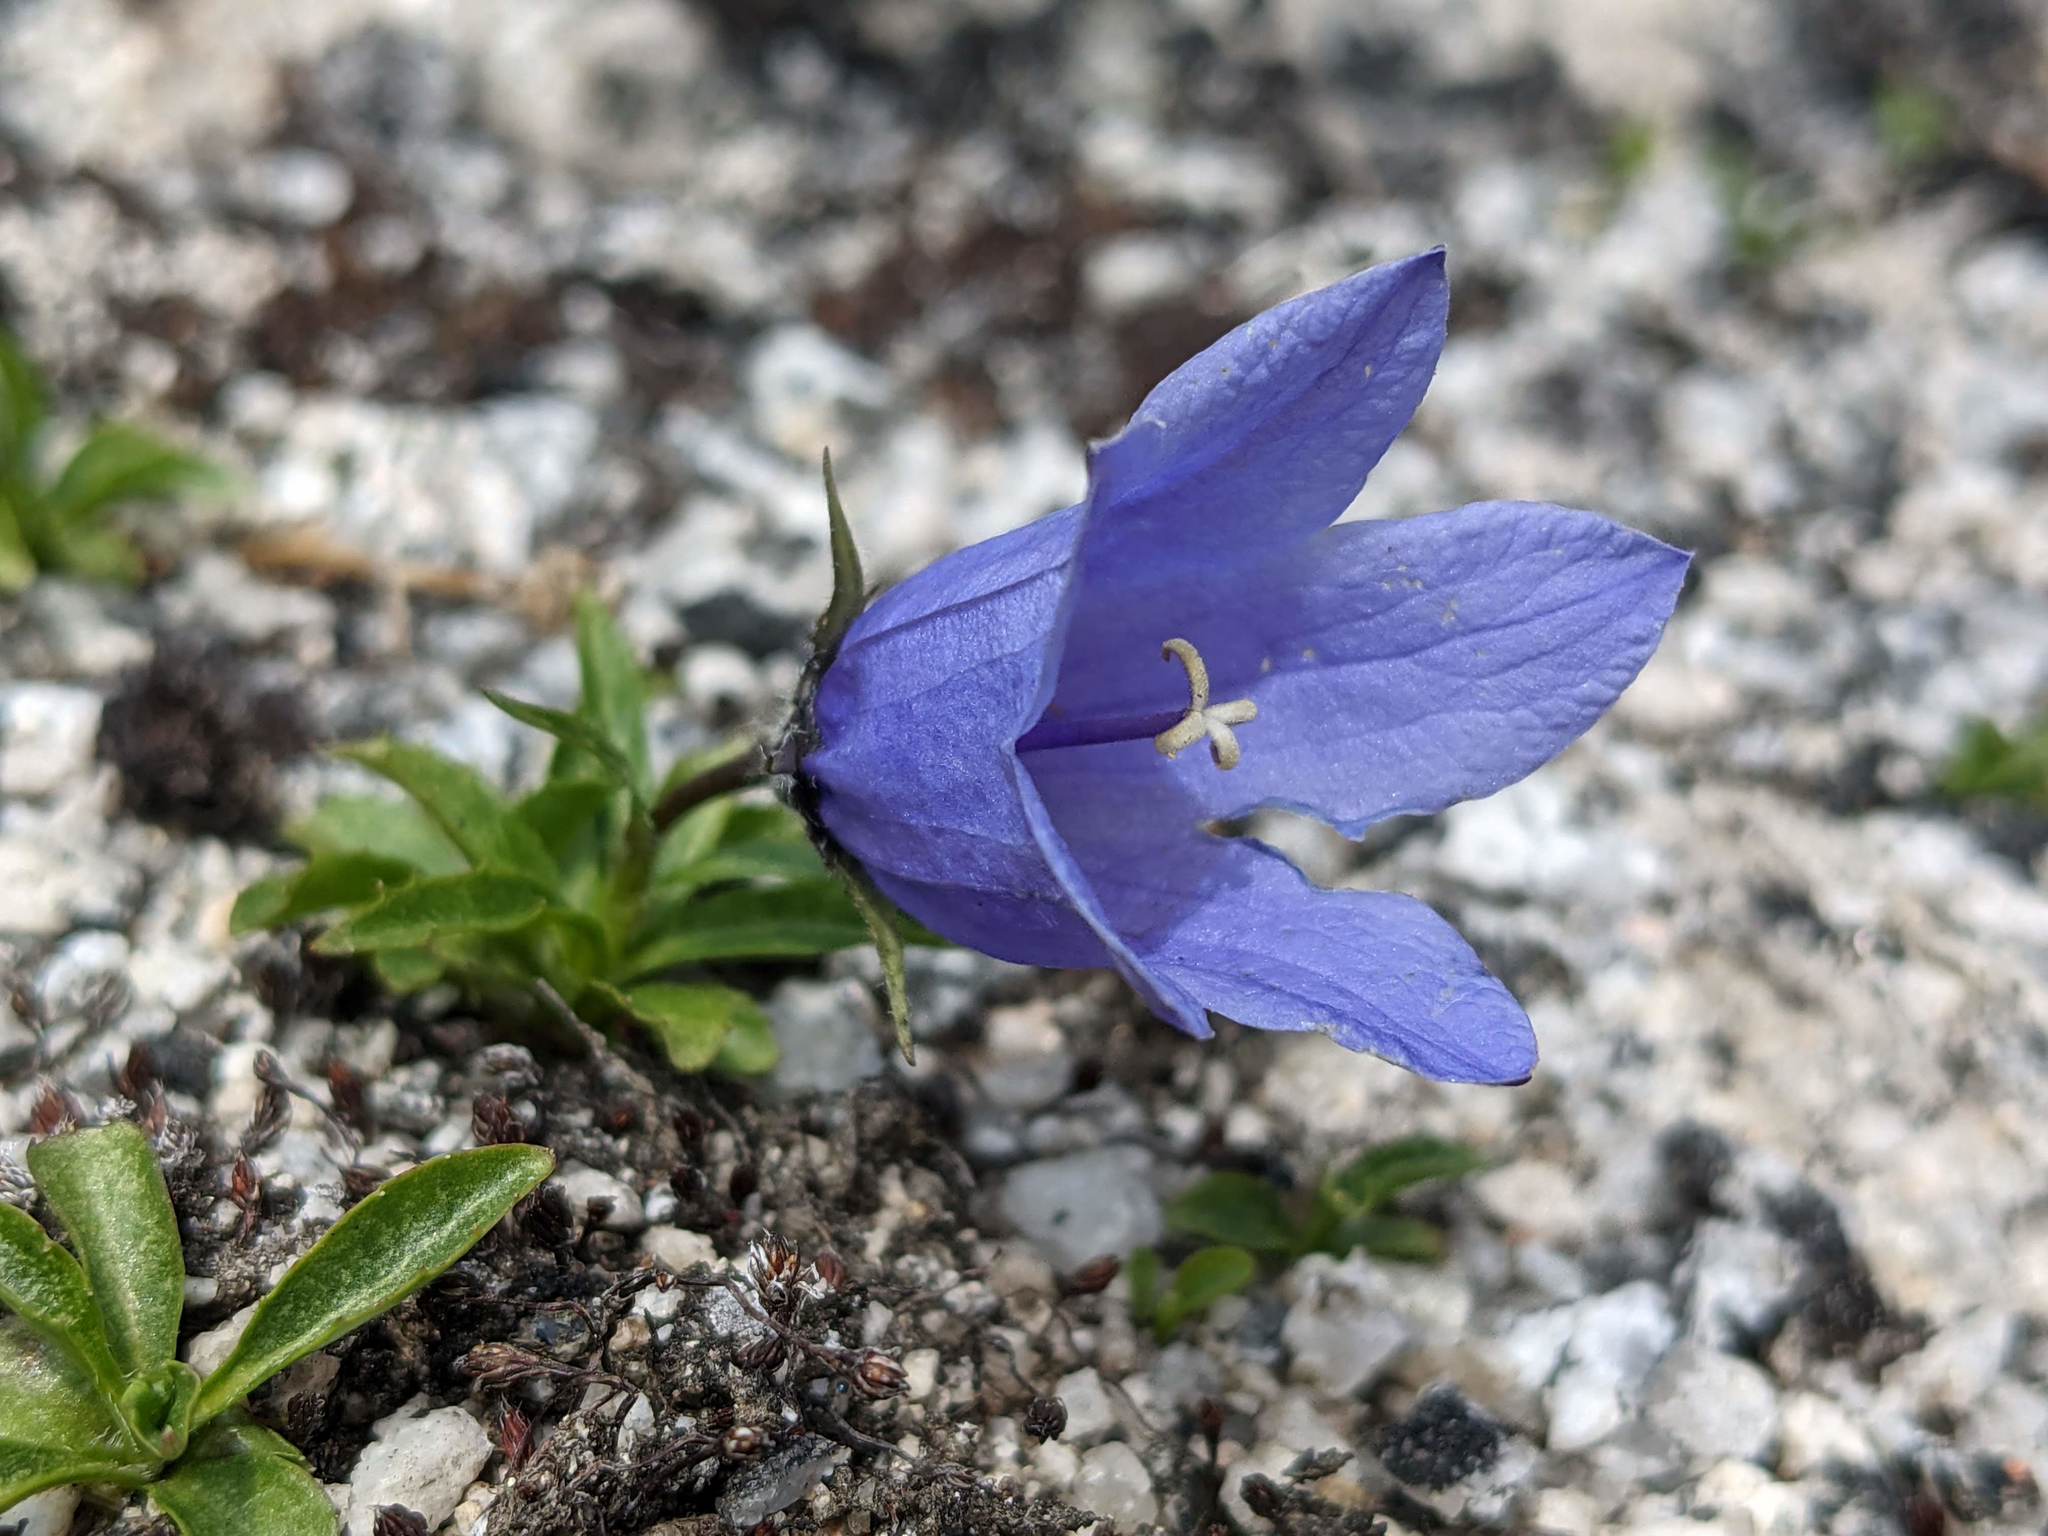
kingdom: Plantae
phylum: Tracheophyta
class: Magnoliopsida
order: Asterales
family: Campanulaceae
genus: Campanula
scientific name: Campanula lasiocarpa
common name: Mountain harebell
